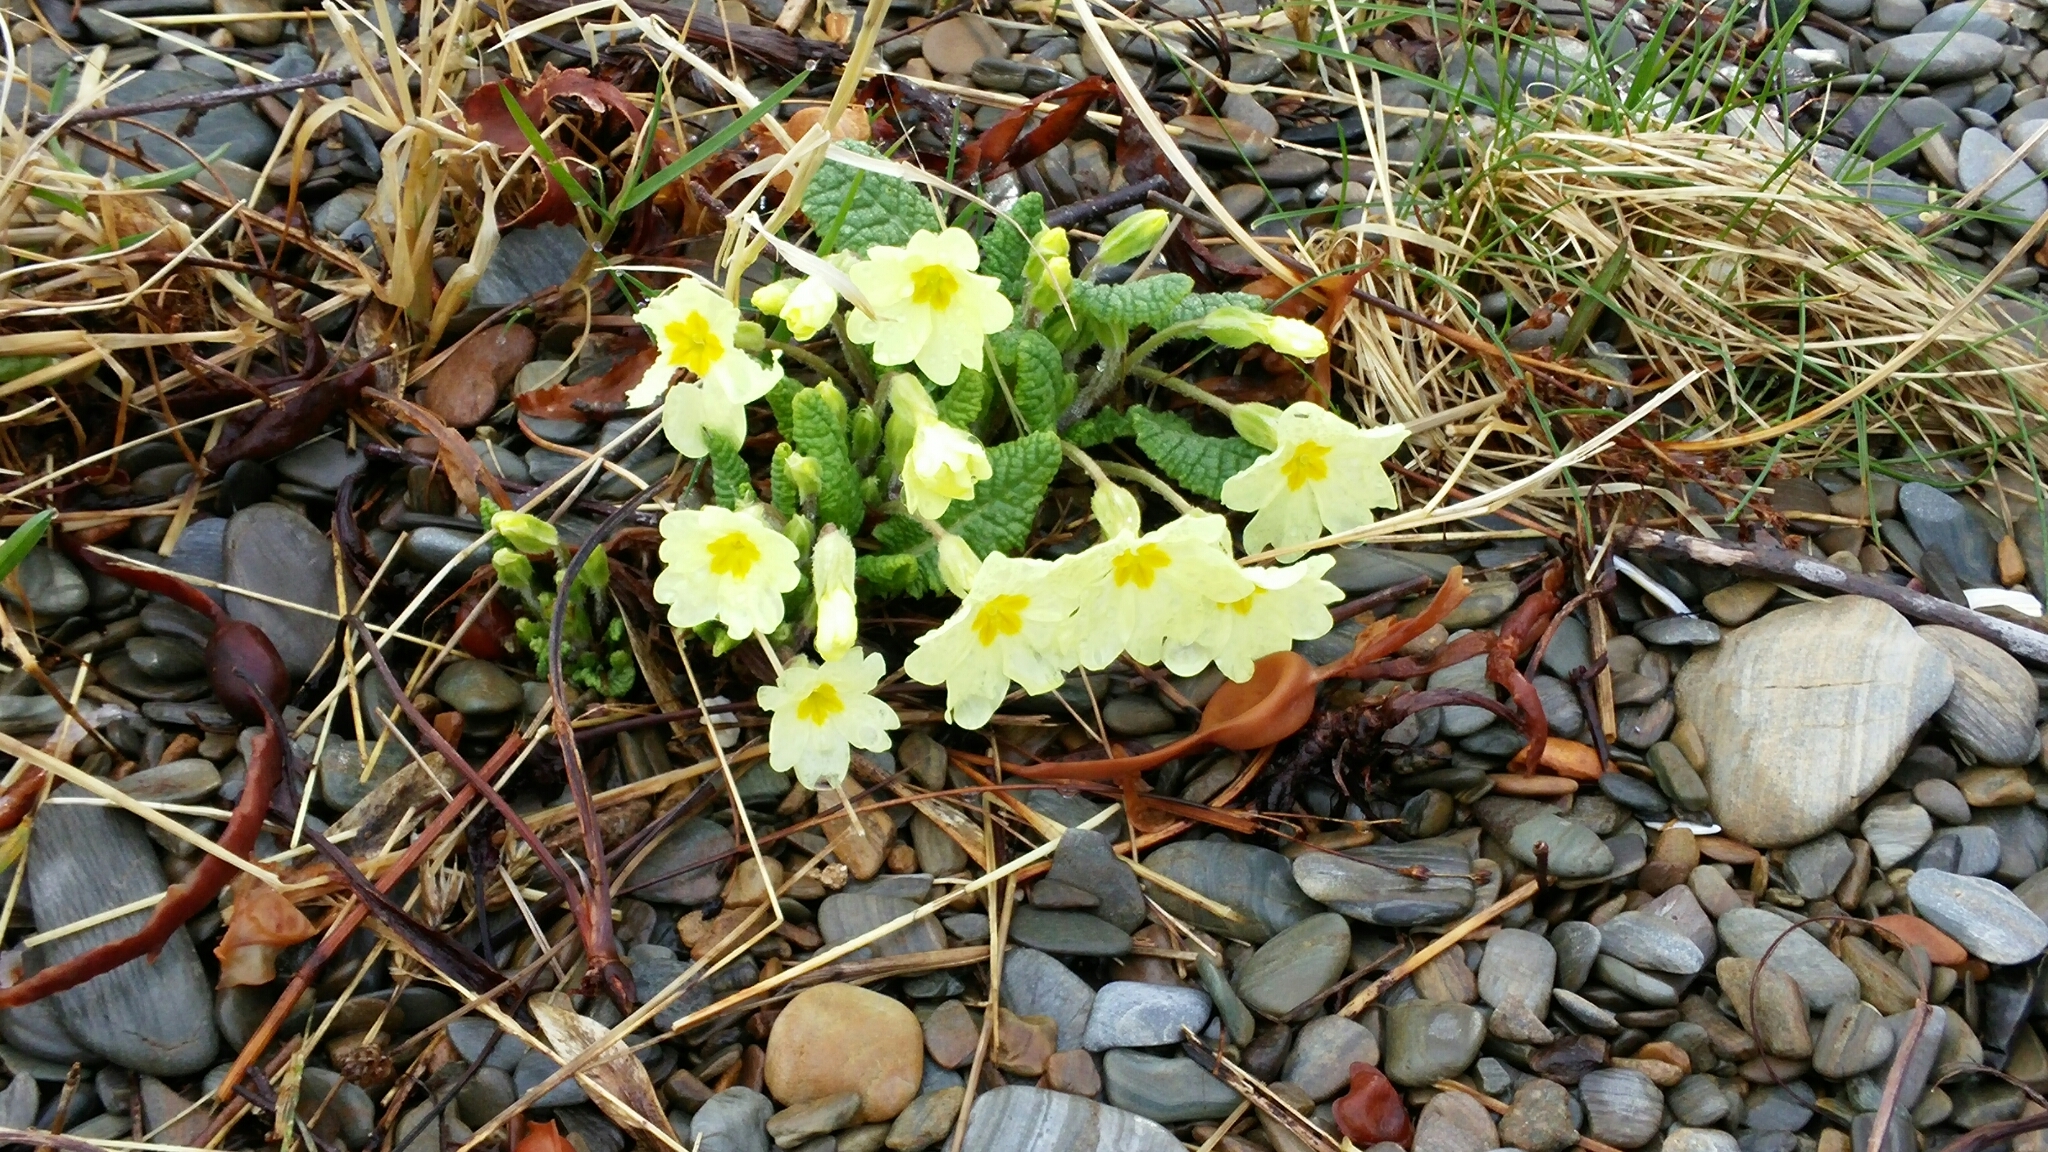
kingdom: Plantae
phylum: Tracheophyta
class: Magnoliopsida
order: Ericales
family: Primulaceae
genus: Primula
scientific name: Primula vulgaris
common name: Primrose
